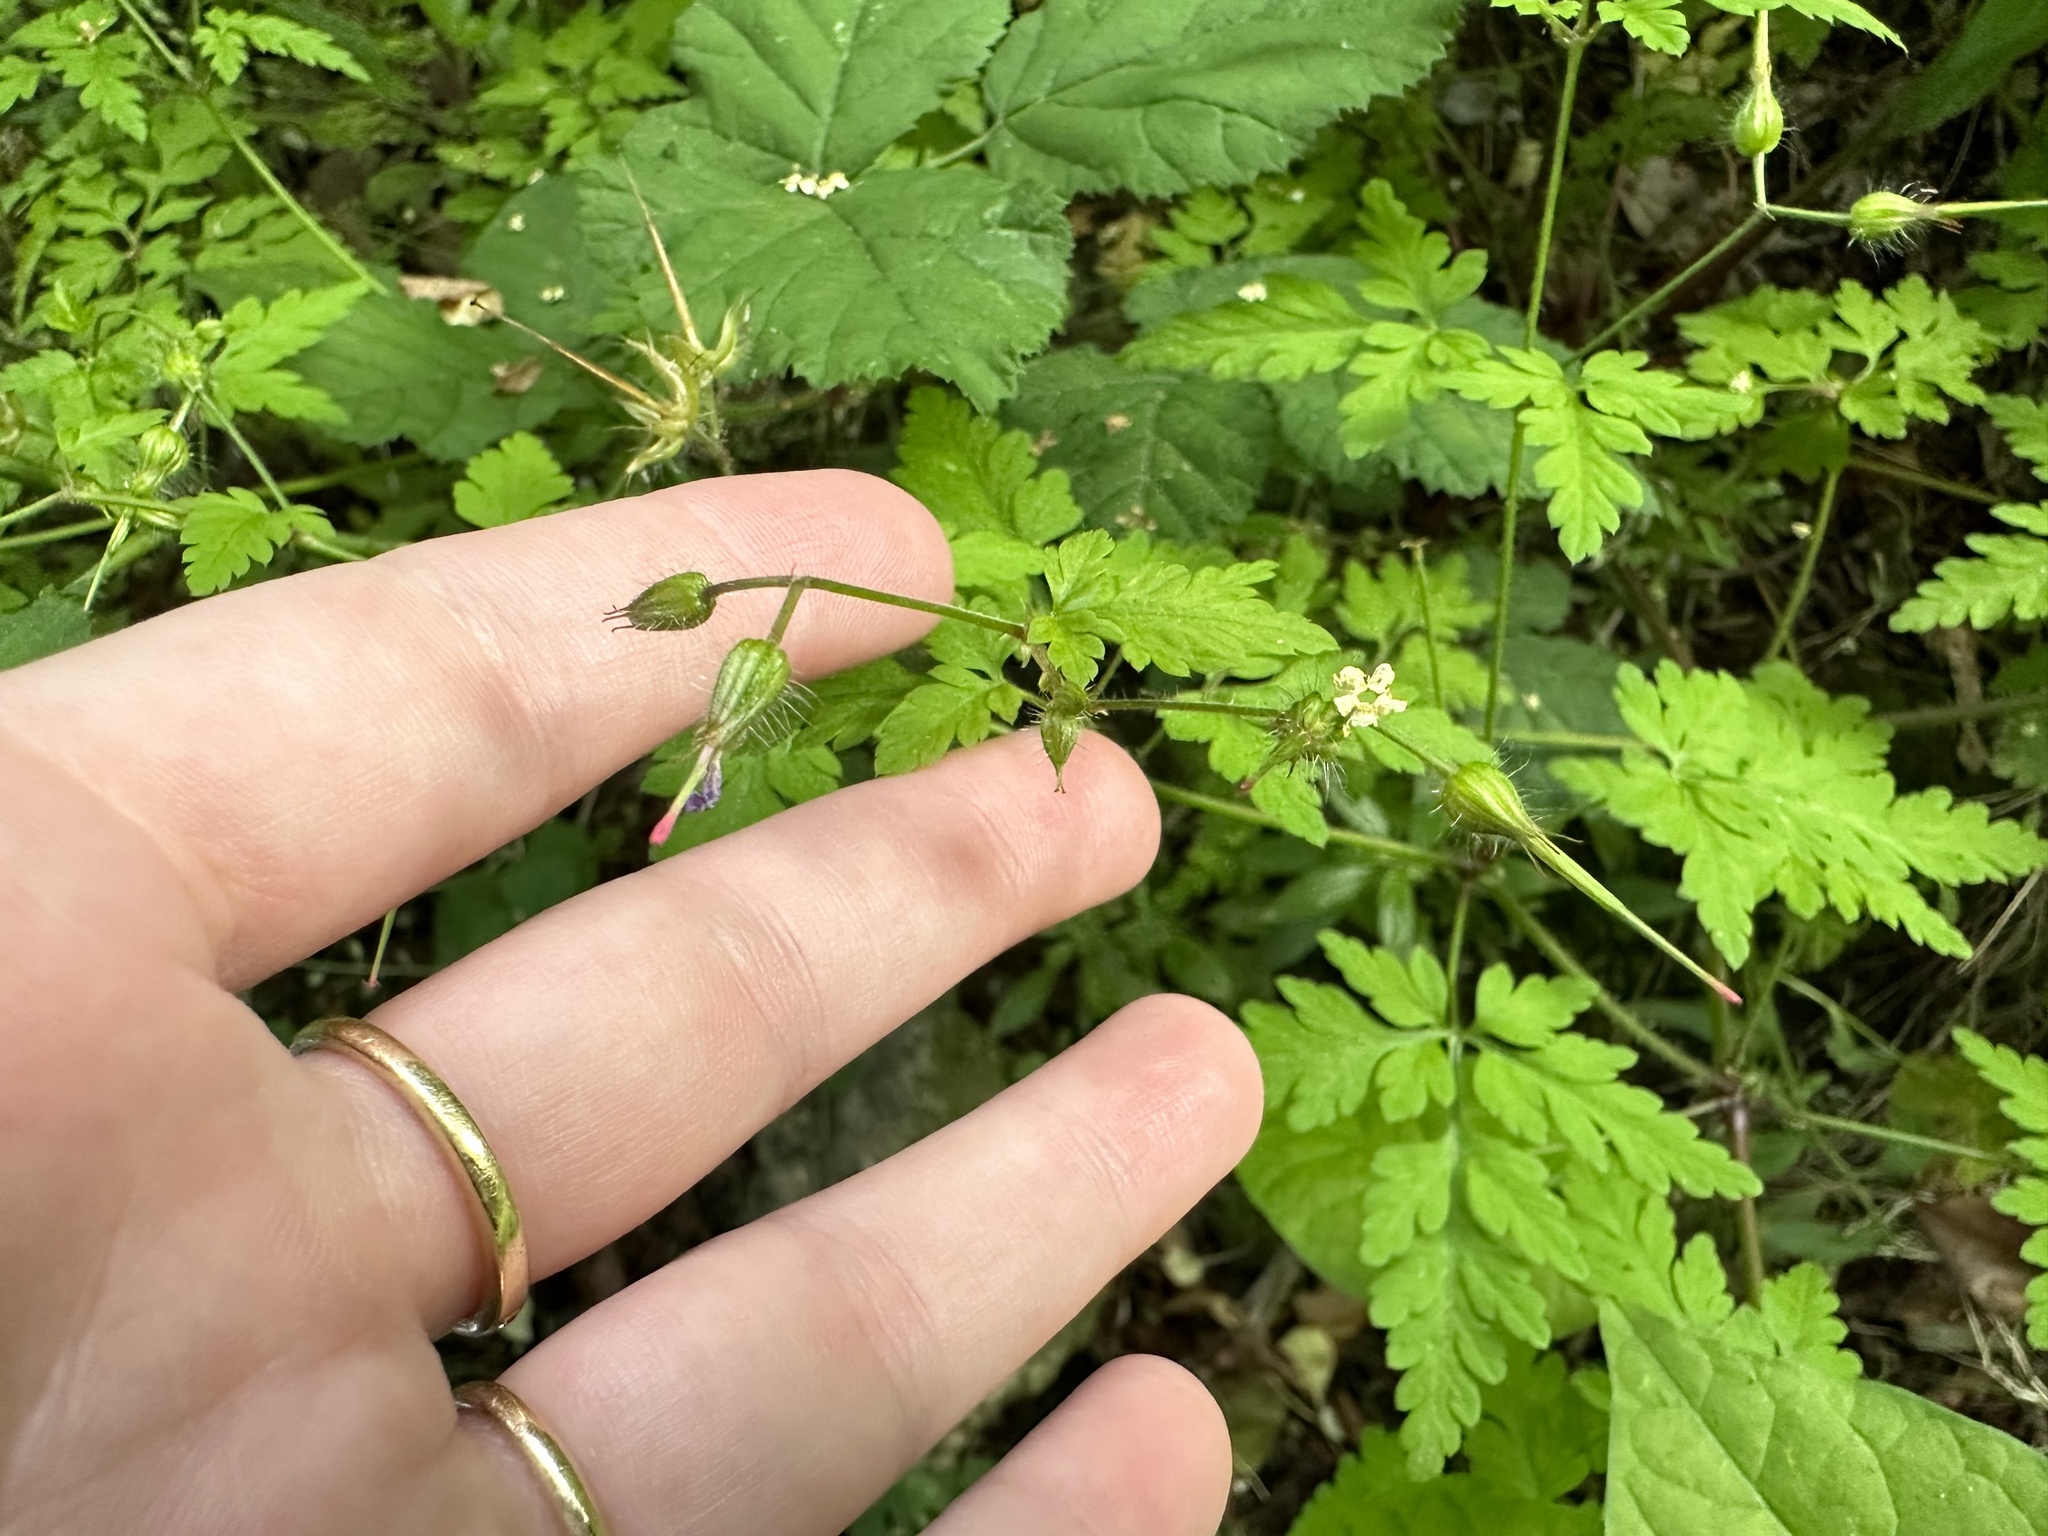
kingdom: Plantae
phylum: Tracheophyta
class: Magnoliopsida
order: Geraniales
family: Geraniaceae
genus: Geranium
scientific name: Geranium robertianum
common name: Herb-robert
